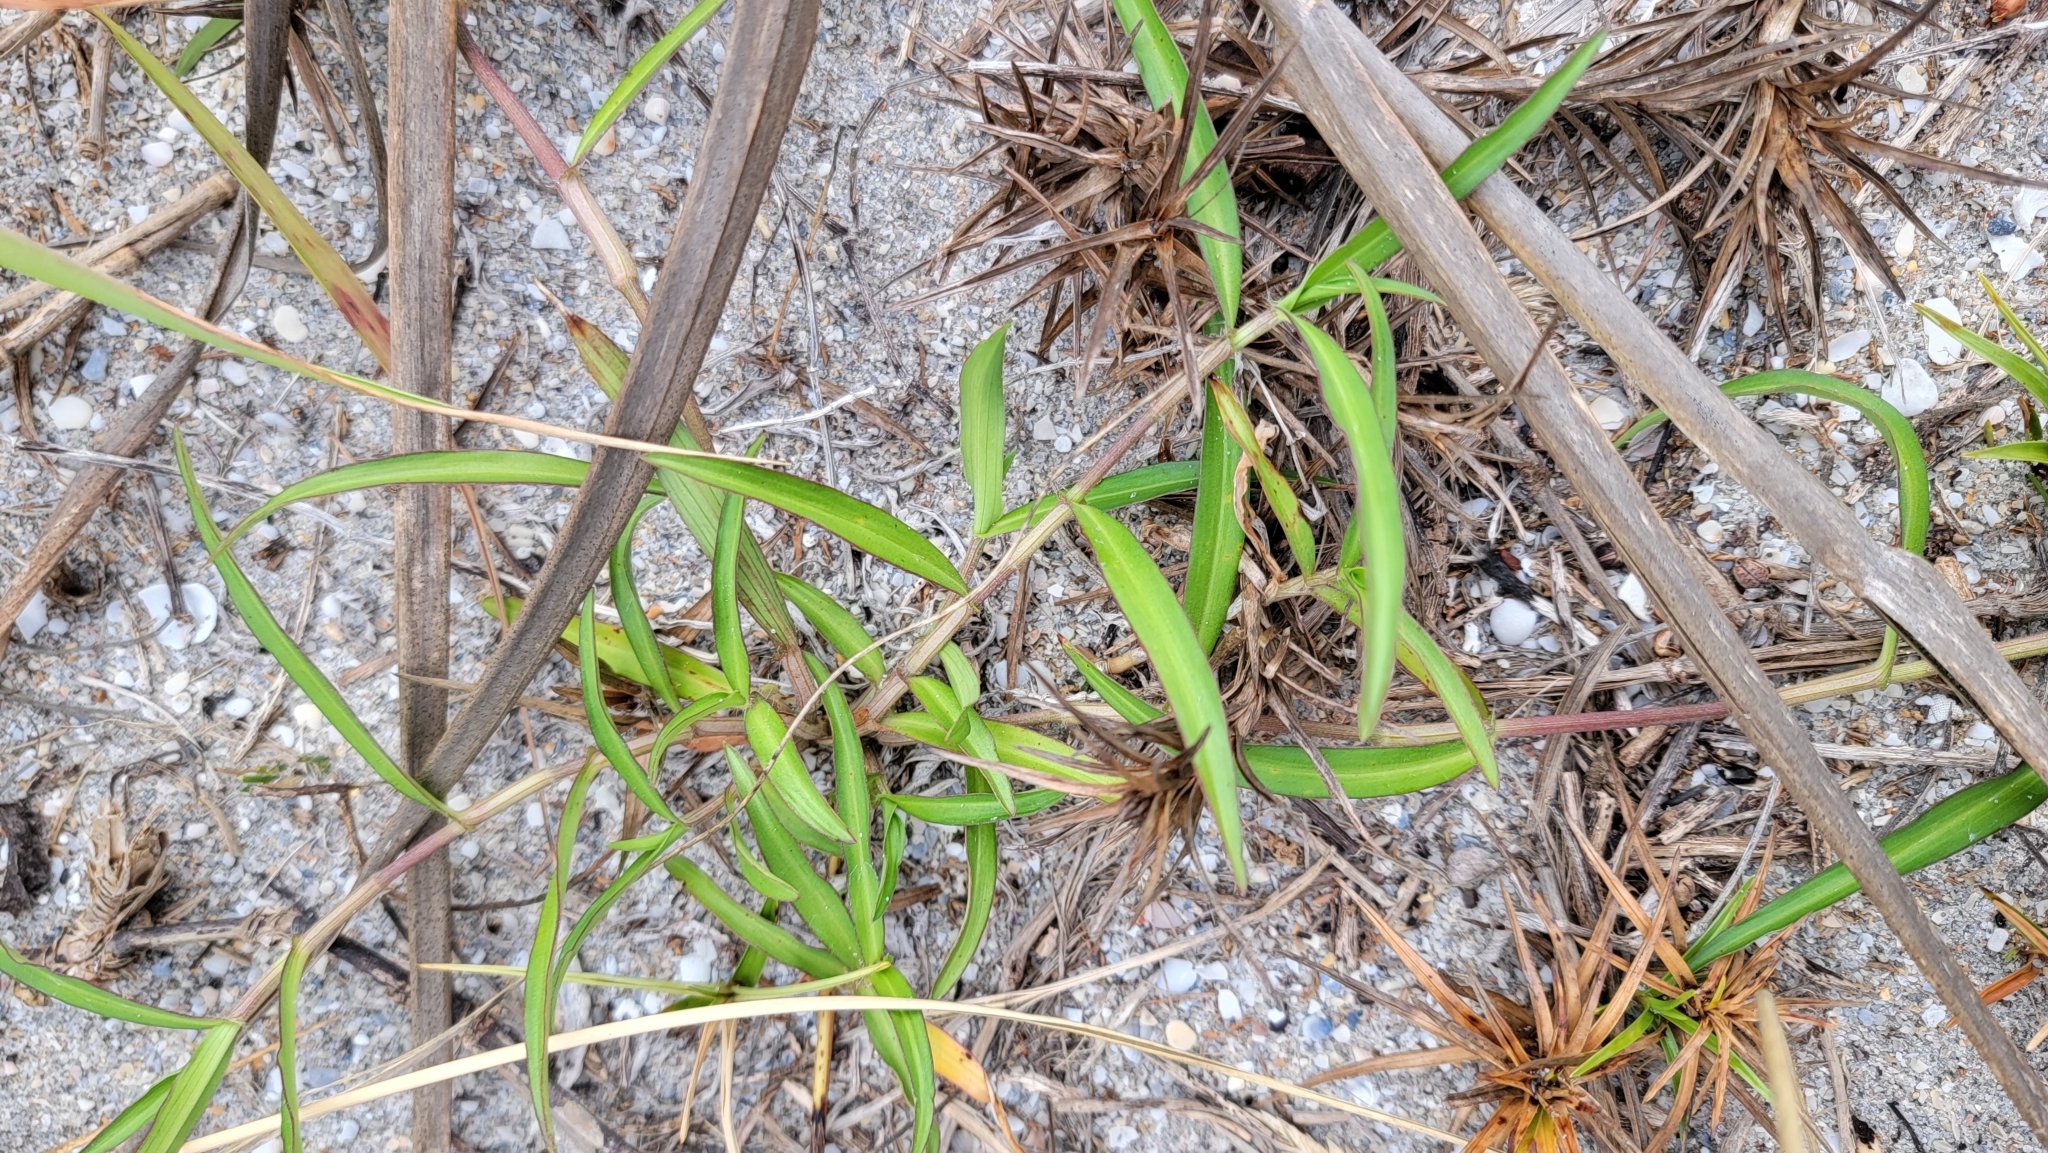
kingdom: Plantae
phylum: Tracheophyta
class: Liliopsida
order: Commelinales
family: Commelinaceae
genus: Commelina
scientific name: Commelina erecta
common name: Blousel blommetjie
